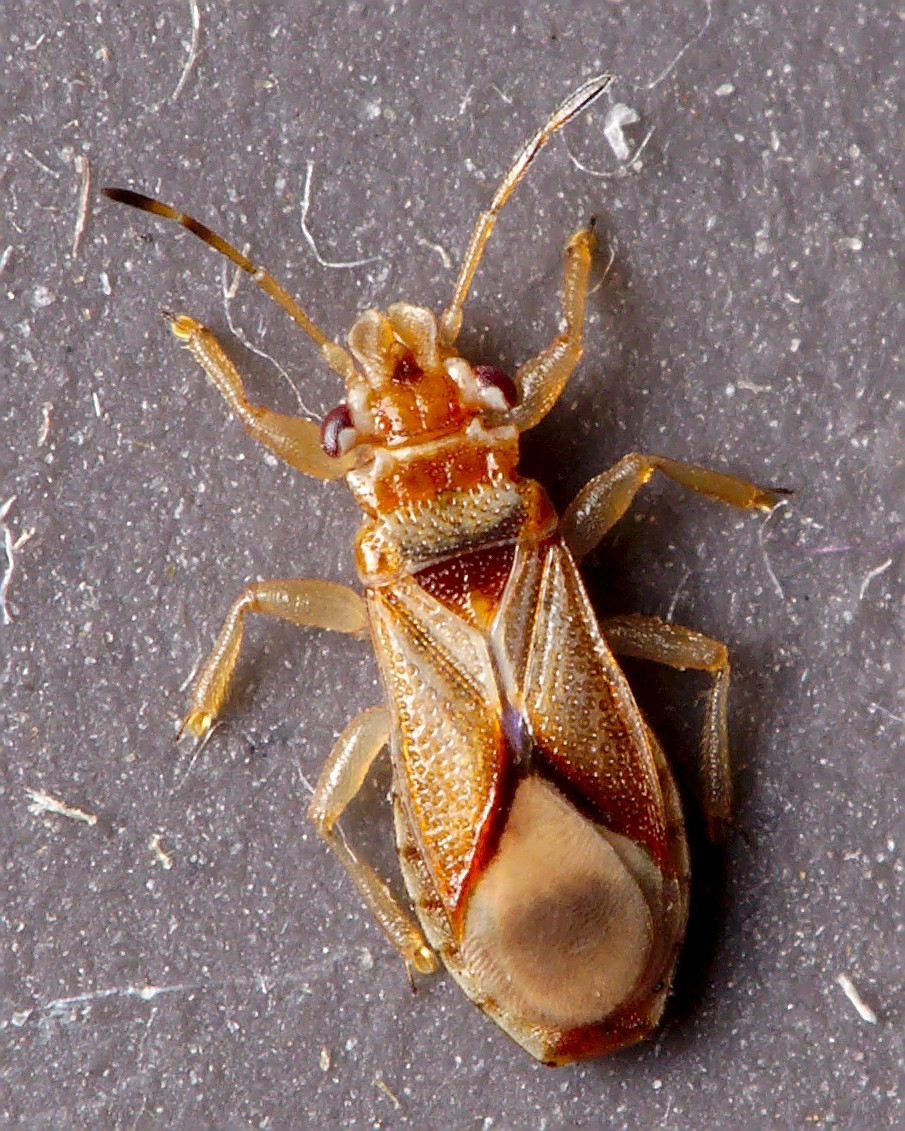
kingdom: Animalia
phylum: Arthropoda
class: Insecta
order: Hemiptera
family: Thaumastocoridae
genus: Thaumastocoris
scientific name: Thaumastocoris peregrinus
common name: Bronze bug
